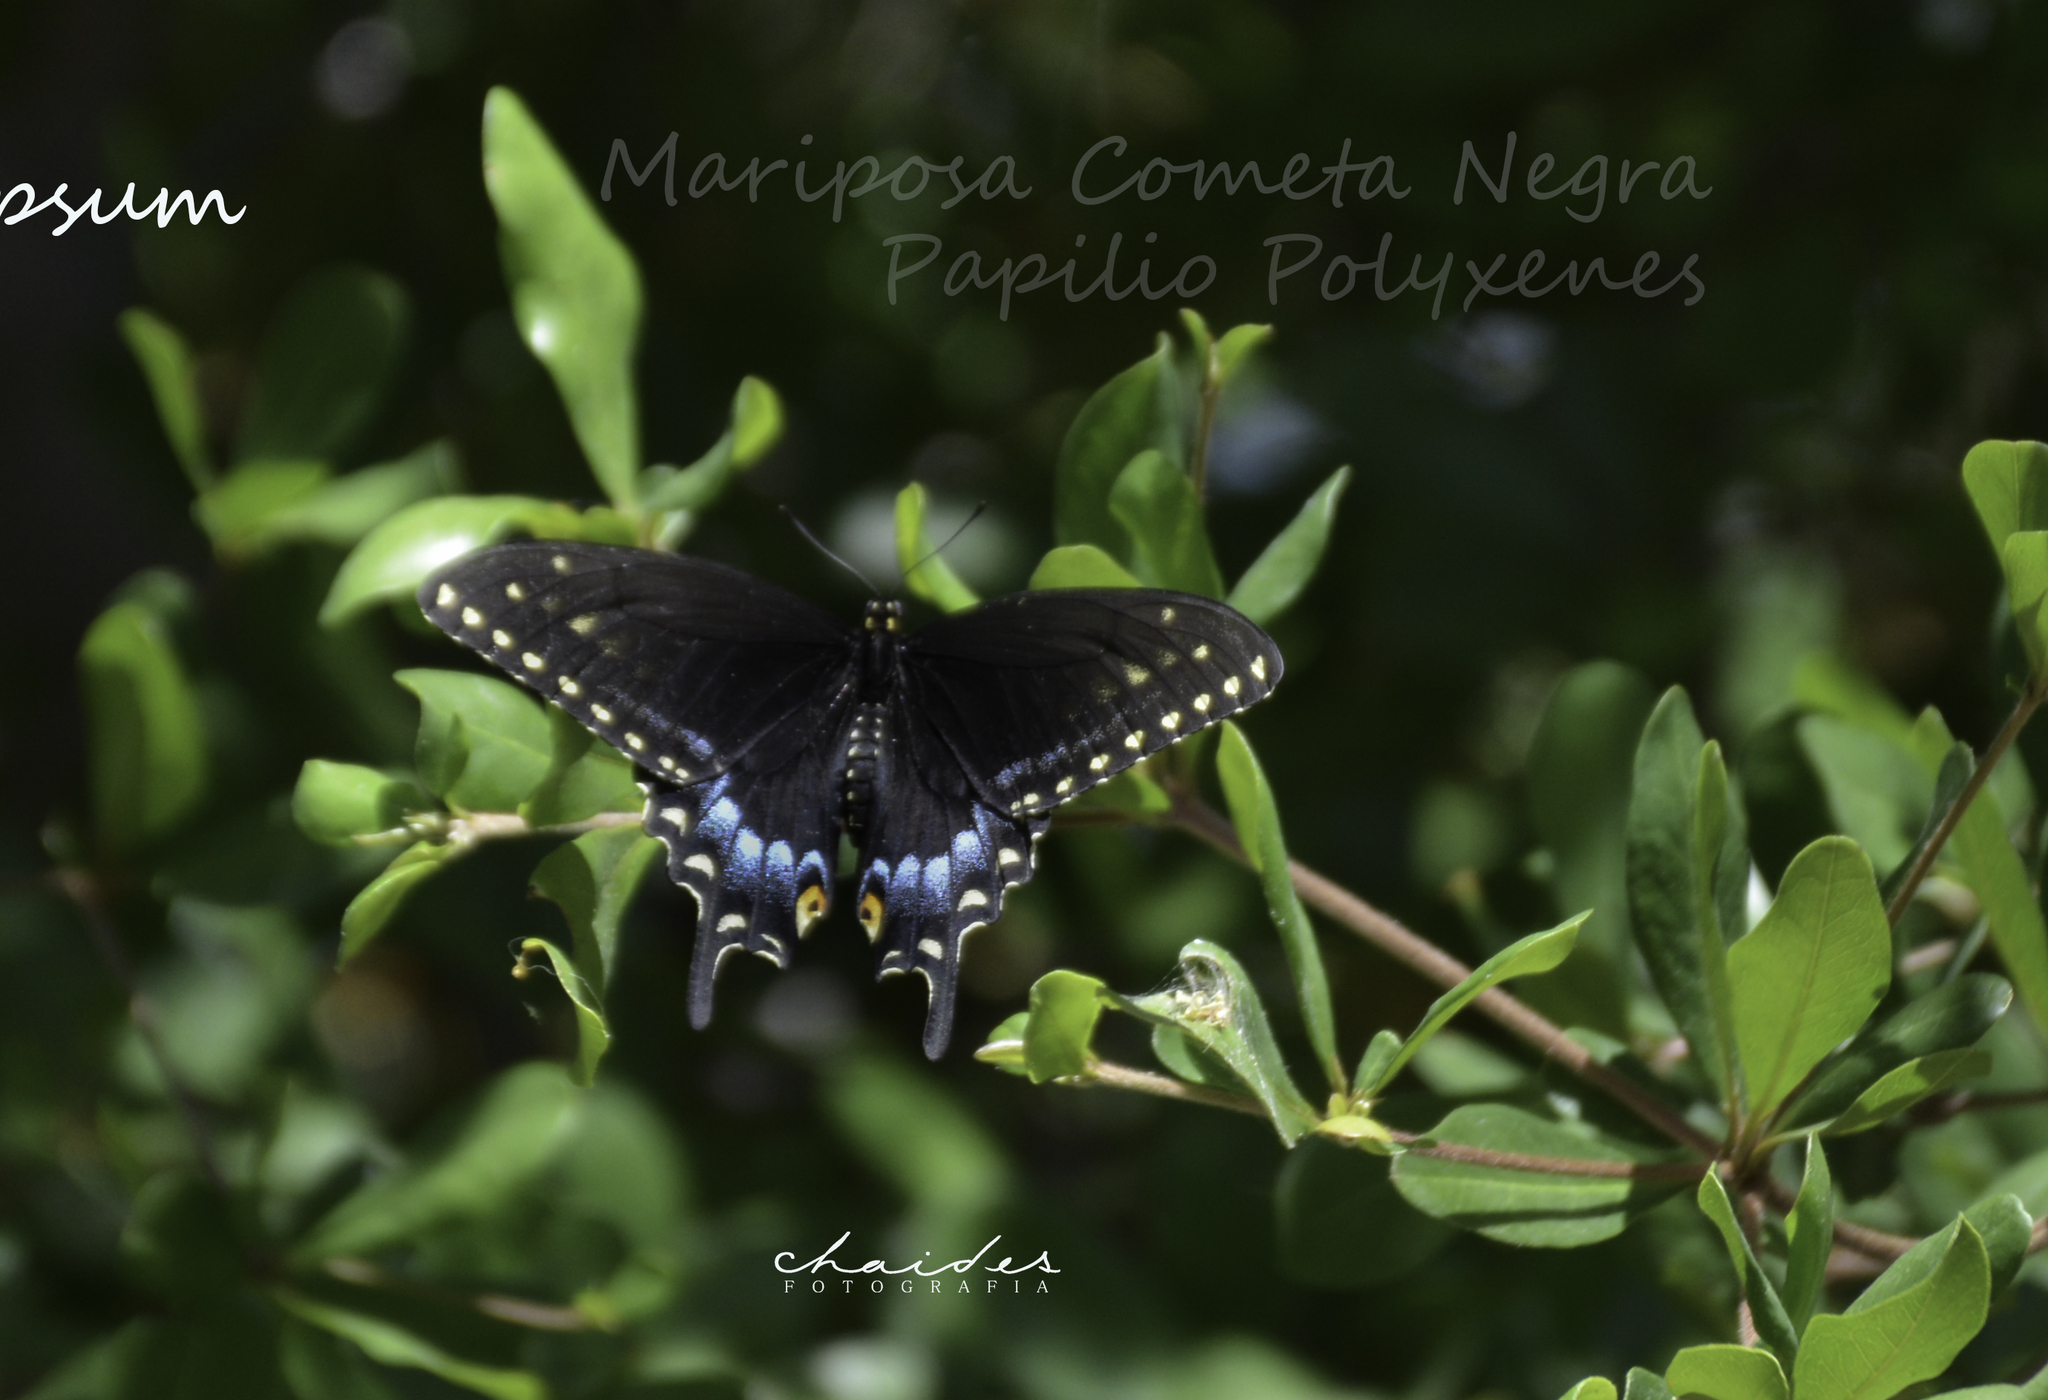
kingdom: Animalia
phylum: Arthropoda
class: Insecta
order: Lepidoptera
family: Papilionidae
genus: Papilio
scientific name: Papilio polyxenes
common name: Black swallowtail
